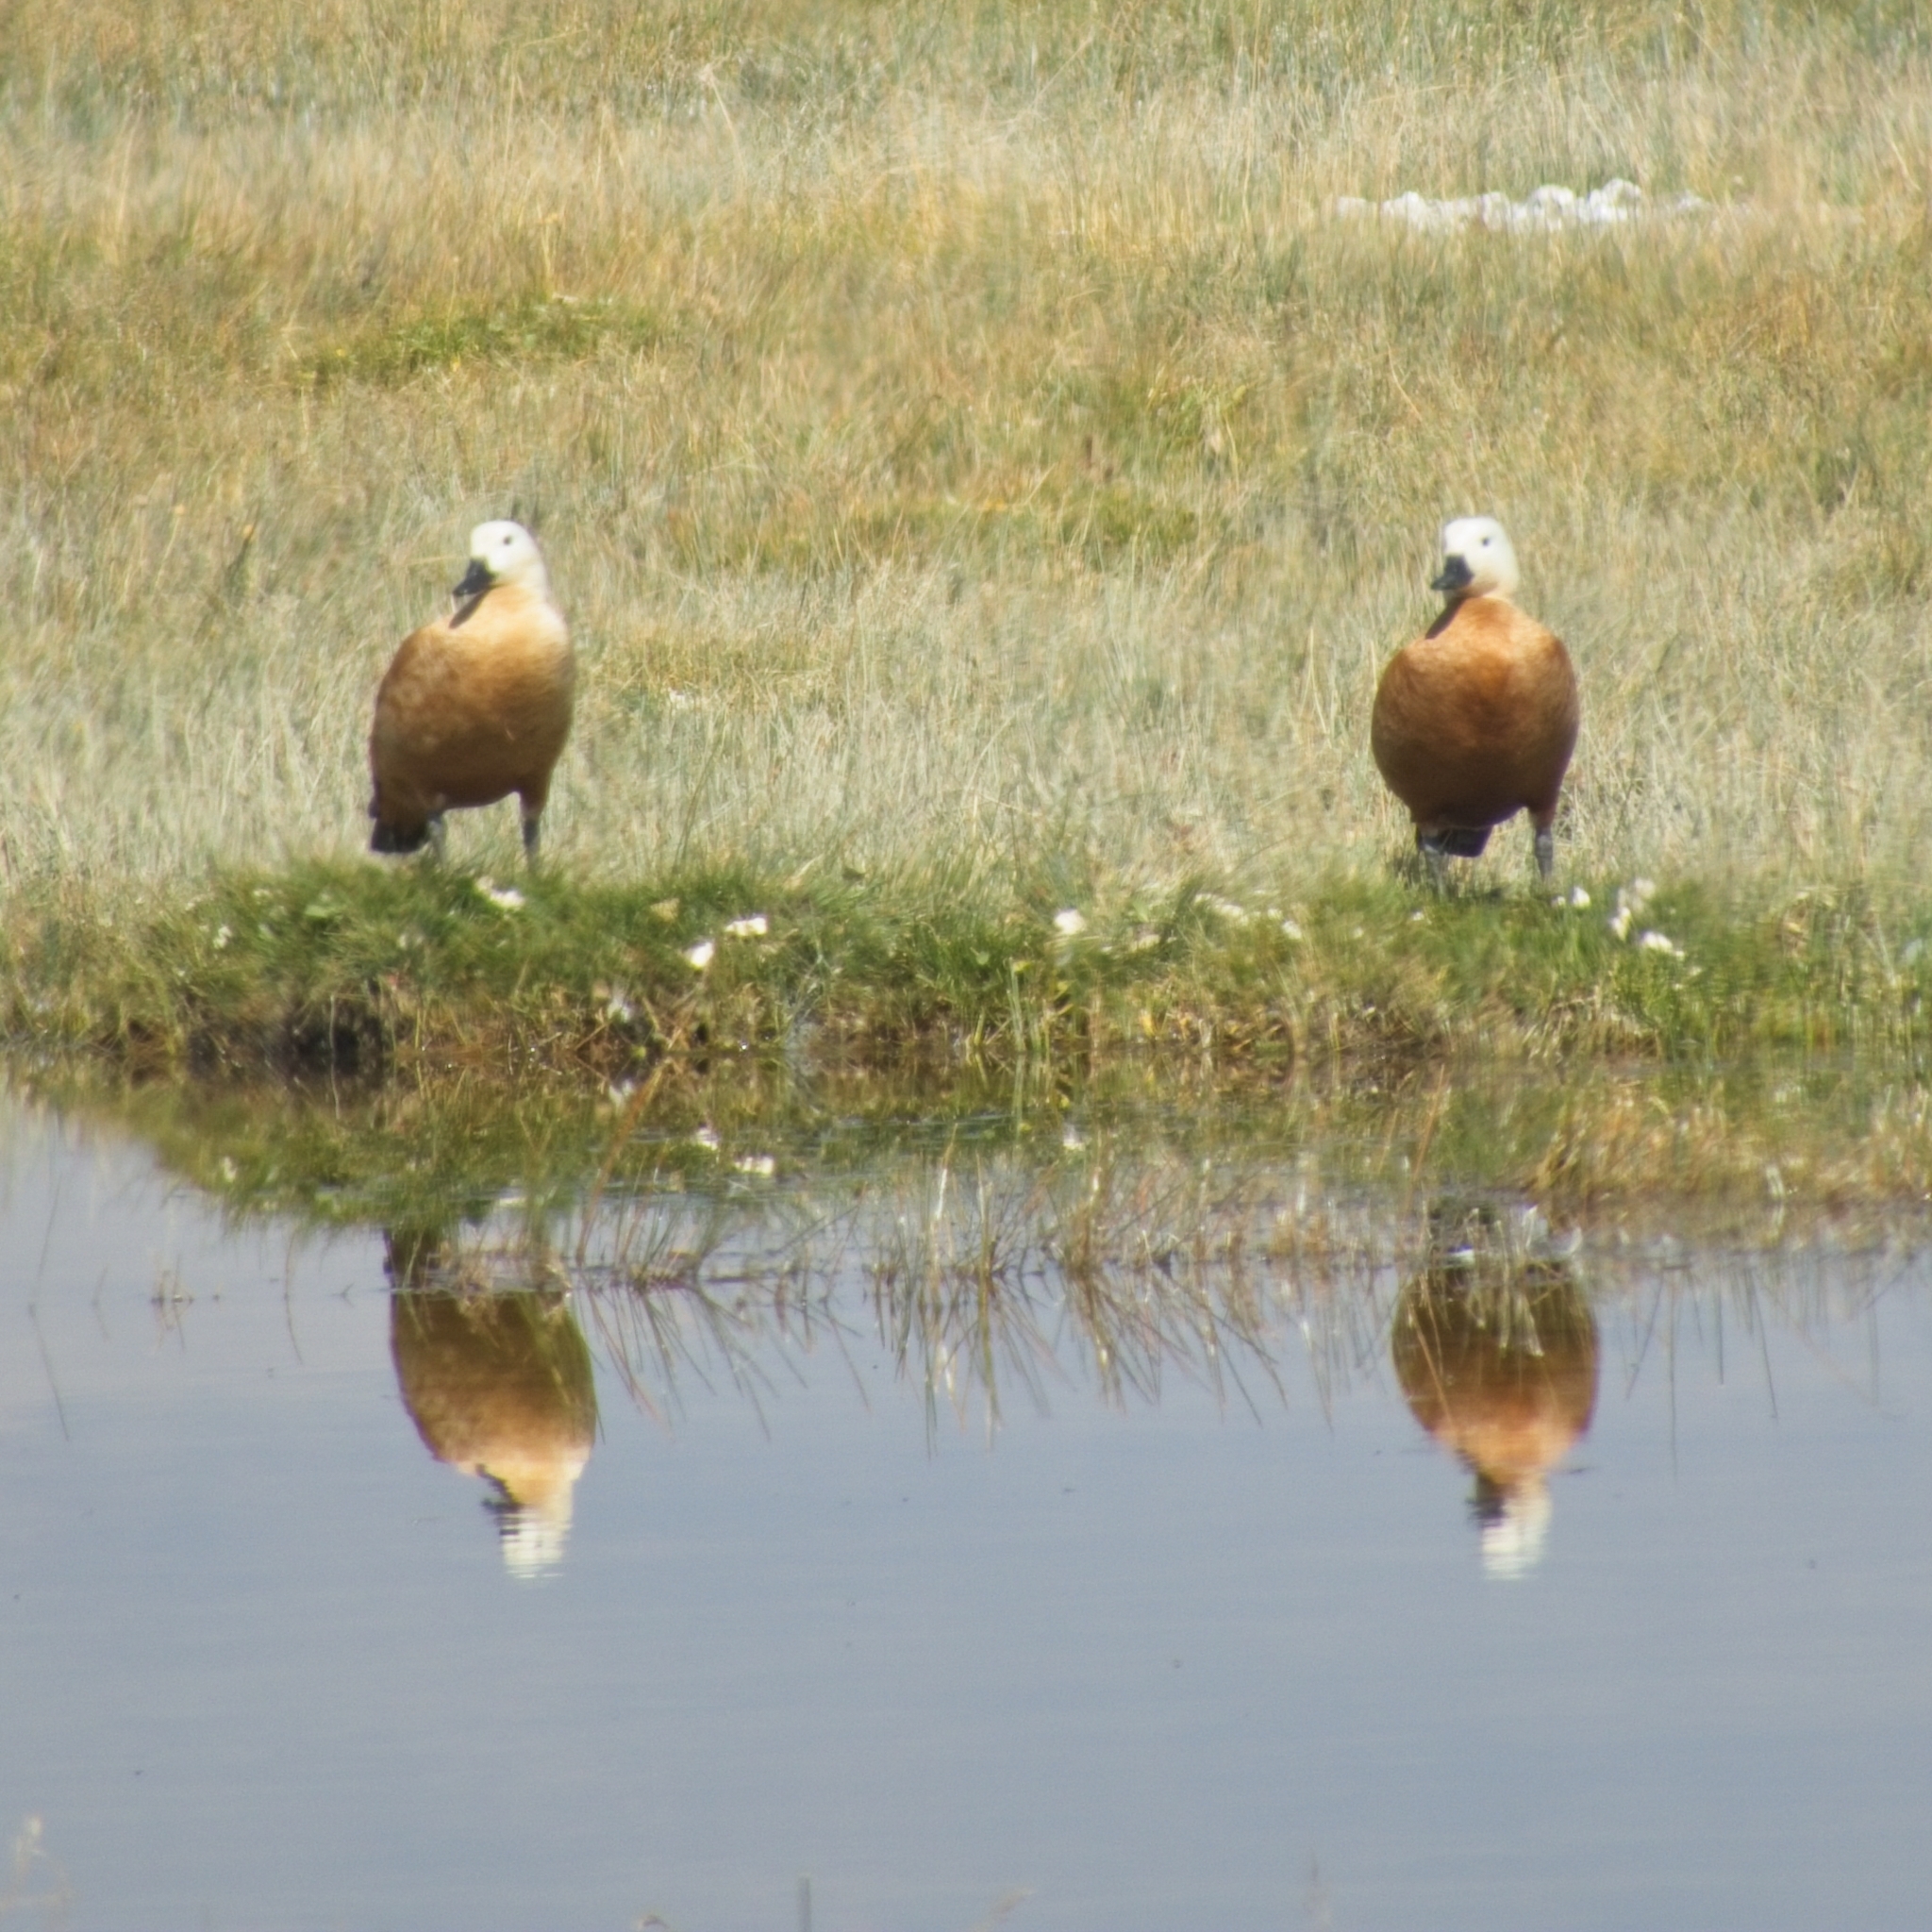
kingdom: Animalia
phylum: Chordata
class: Aves
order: Anseriformes
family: Anatidae
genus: Tadorna
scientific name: Tadorna ferruginea
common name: Ruddy shelduck
